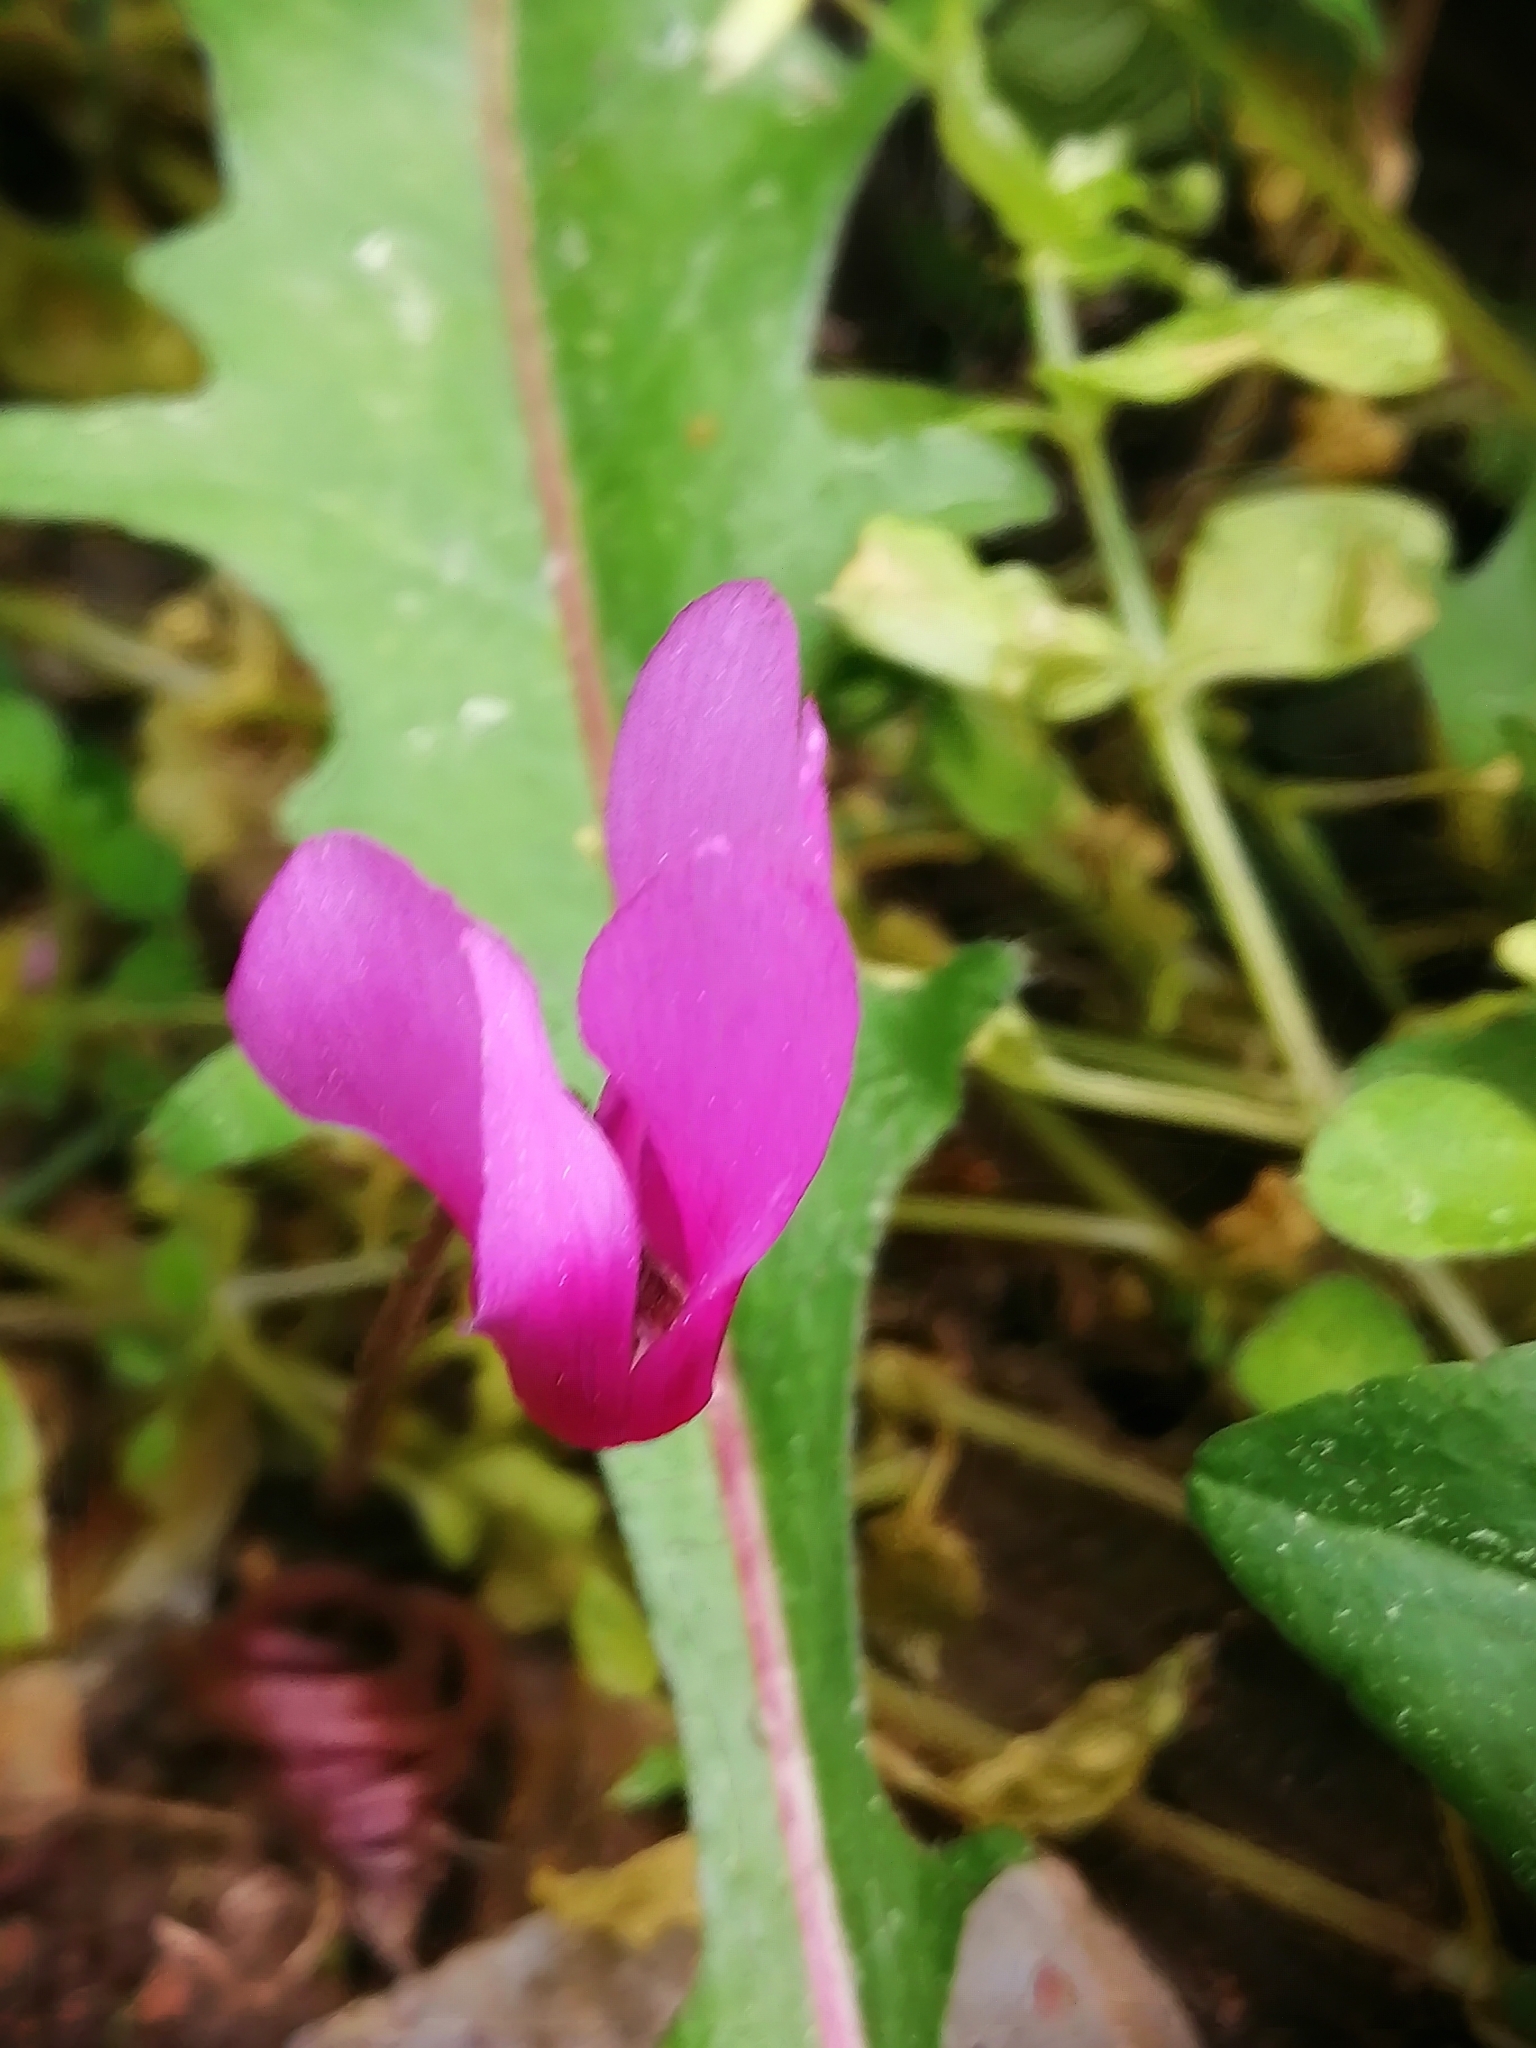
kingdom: Plantae
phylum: Tracheophyta
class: Magnoliopsida
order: Ericales
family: Primulaceae
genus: Cyclamen
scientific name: Cyclamen repandum
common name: Spring sowbread
